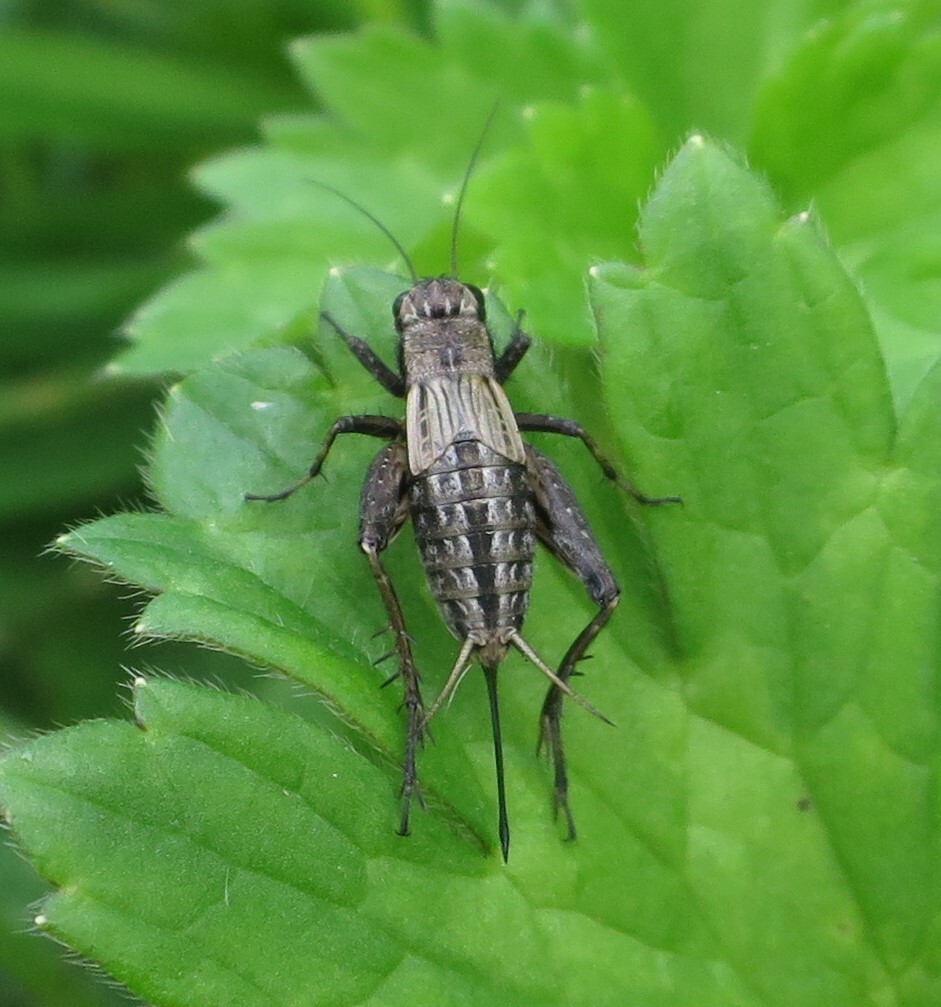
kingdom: Animalia
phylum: Arthropoda
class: Insecta
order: Orthoptera
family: Trigonidiidae
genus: Bobilla
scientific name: Bobilla nigrovus
